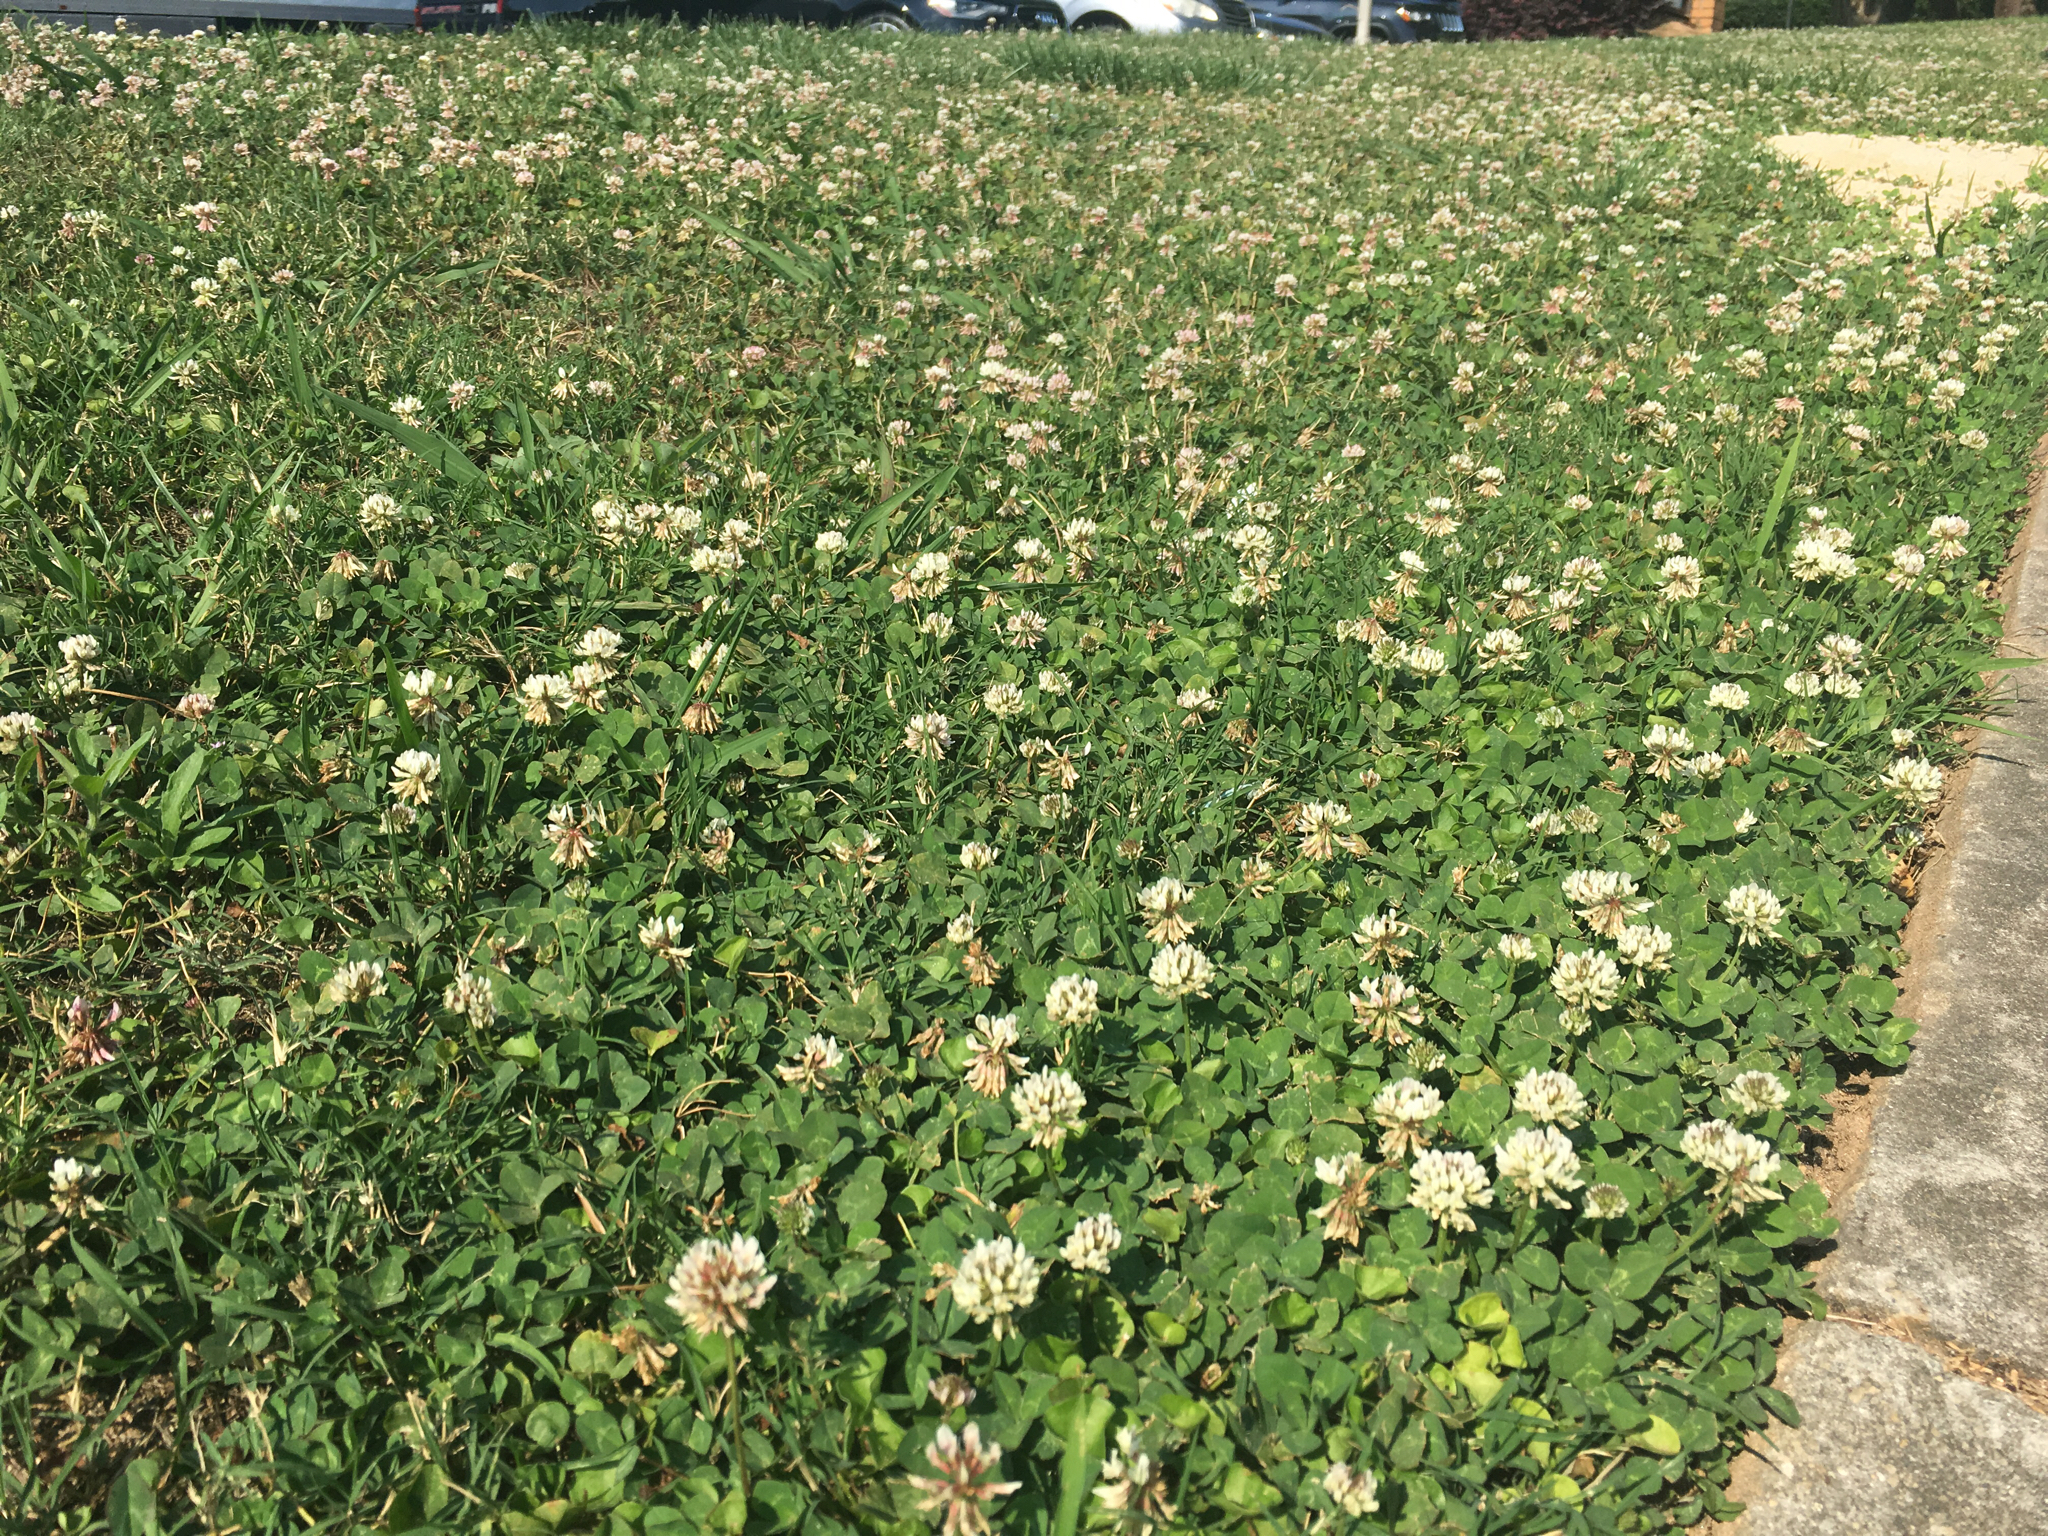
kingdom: Plantae
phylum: Tracheophyta
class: Magnoliopsida
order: Fabales
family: Fabaceae
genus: Trifolium
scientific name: Trifolium repens
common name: White clover
